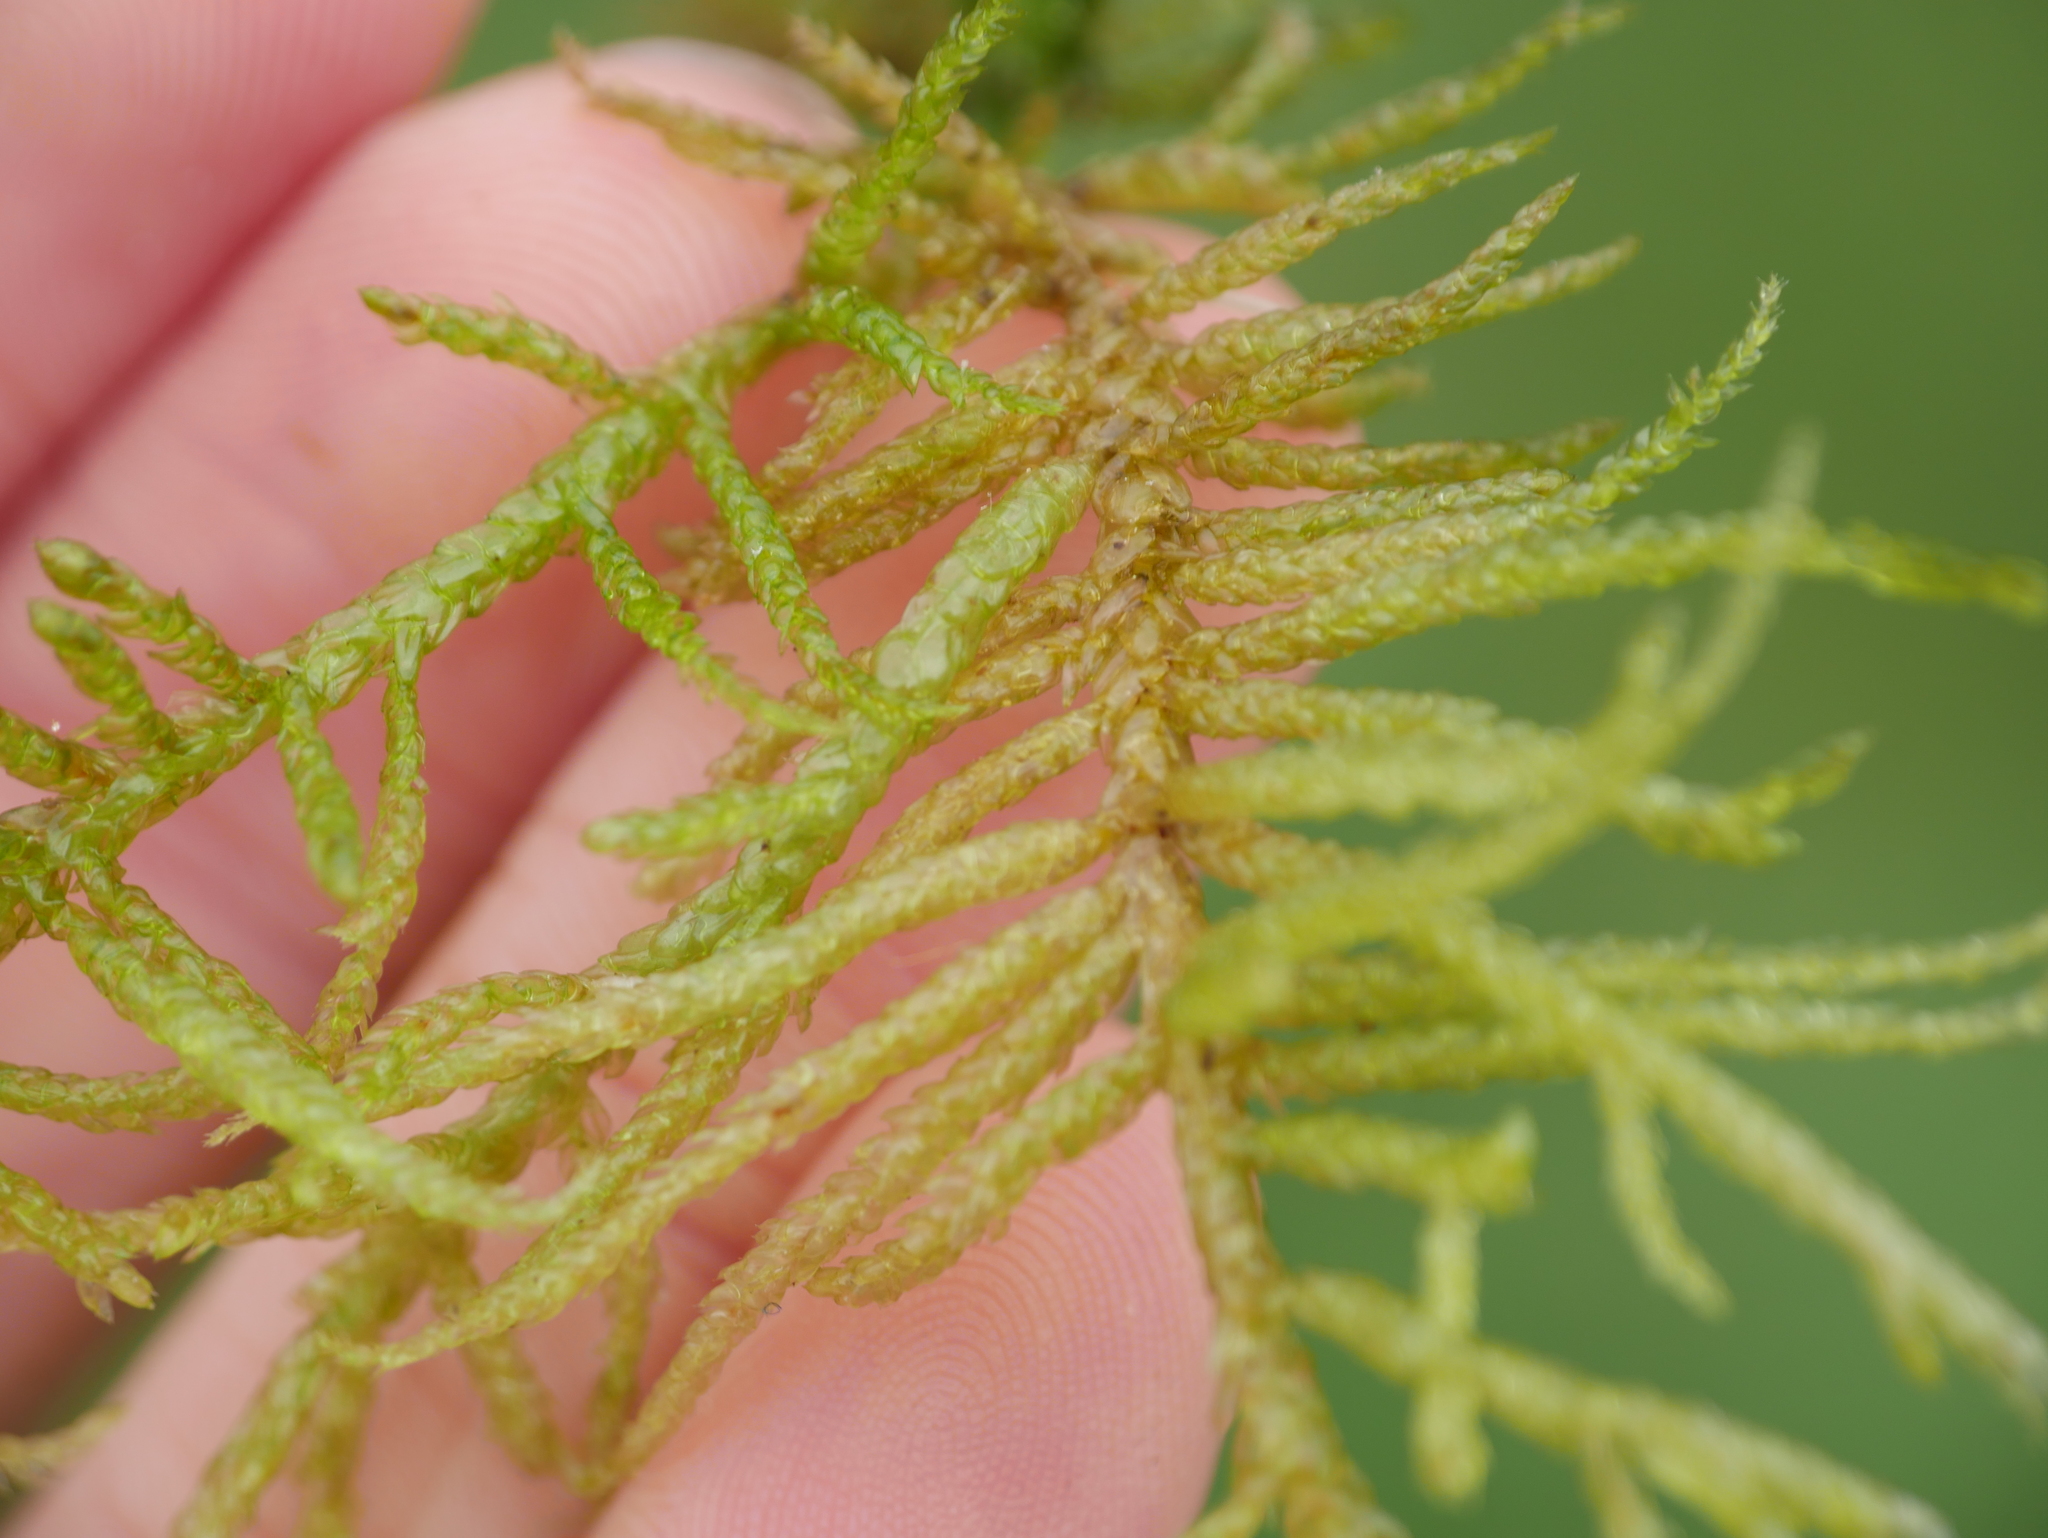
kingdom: Plantae
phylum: Bryophyta
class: Bryopsida
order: Hypnales
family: Brachytheciaceae
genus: Pseudoscleropodium
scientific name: Pseudoscleropodium purum
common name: Neat feather-moss
